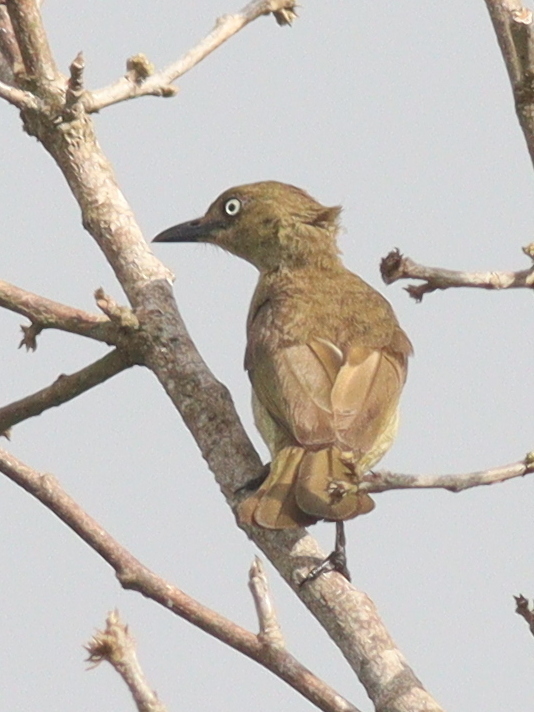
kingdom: Animalia
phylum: Chordata
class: Aves
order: Passeriformes
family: Pycnonotidae
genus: Andropadus
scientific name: Andropadus importunus
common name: Sombre greenbul
